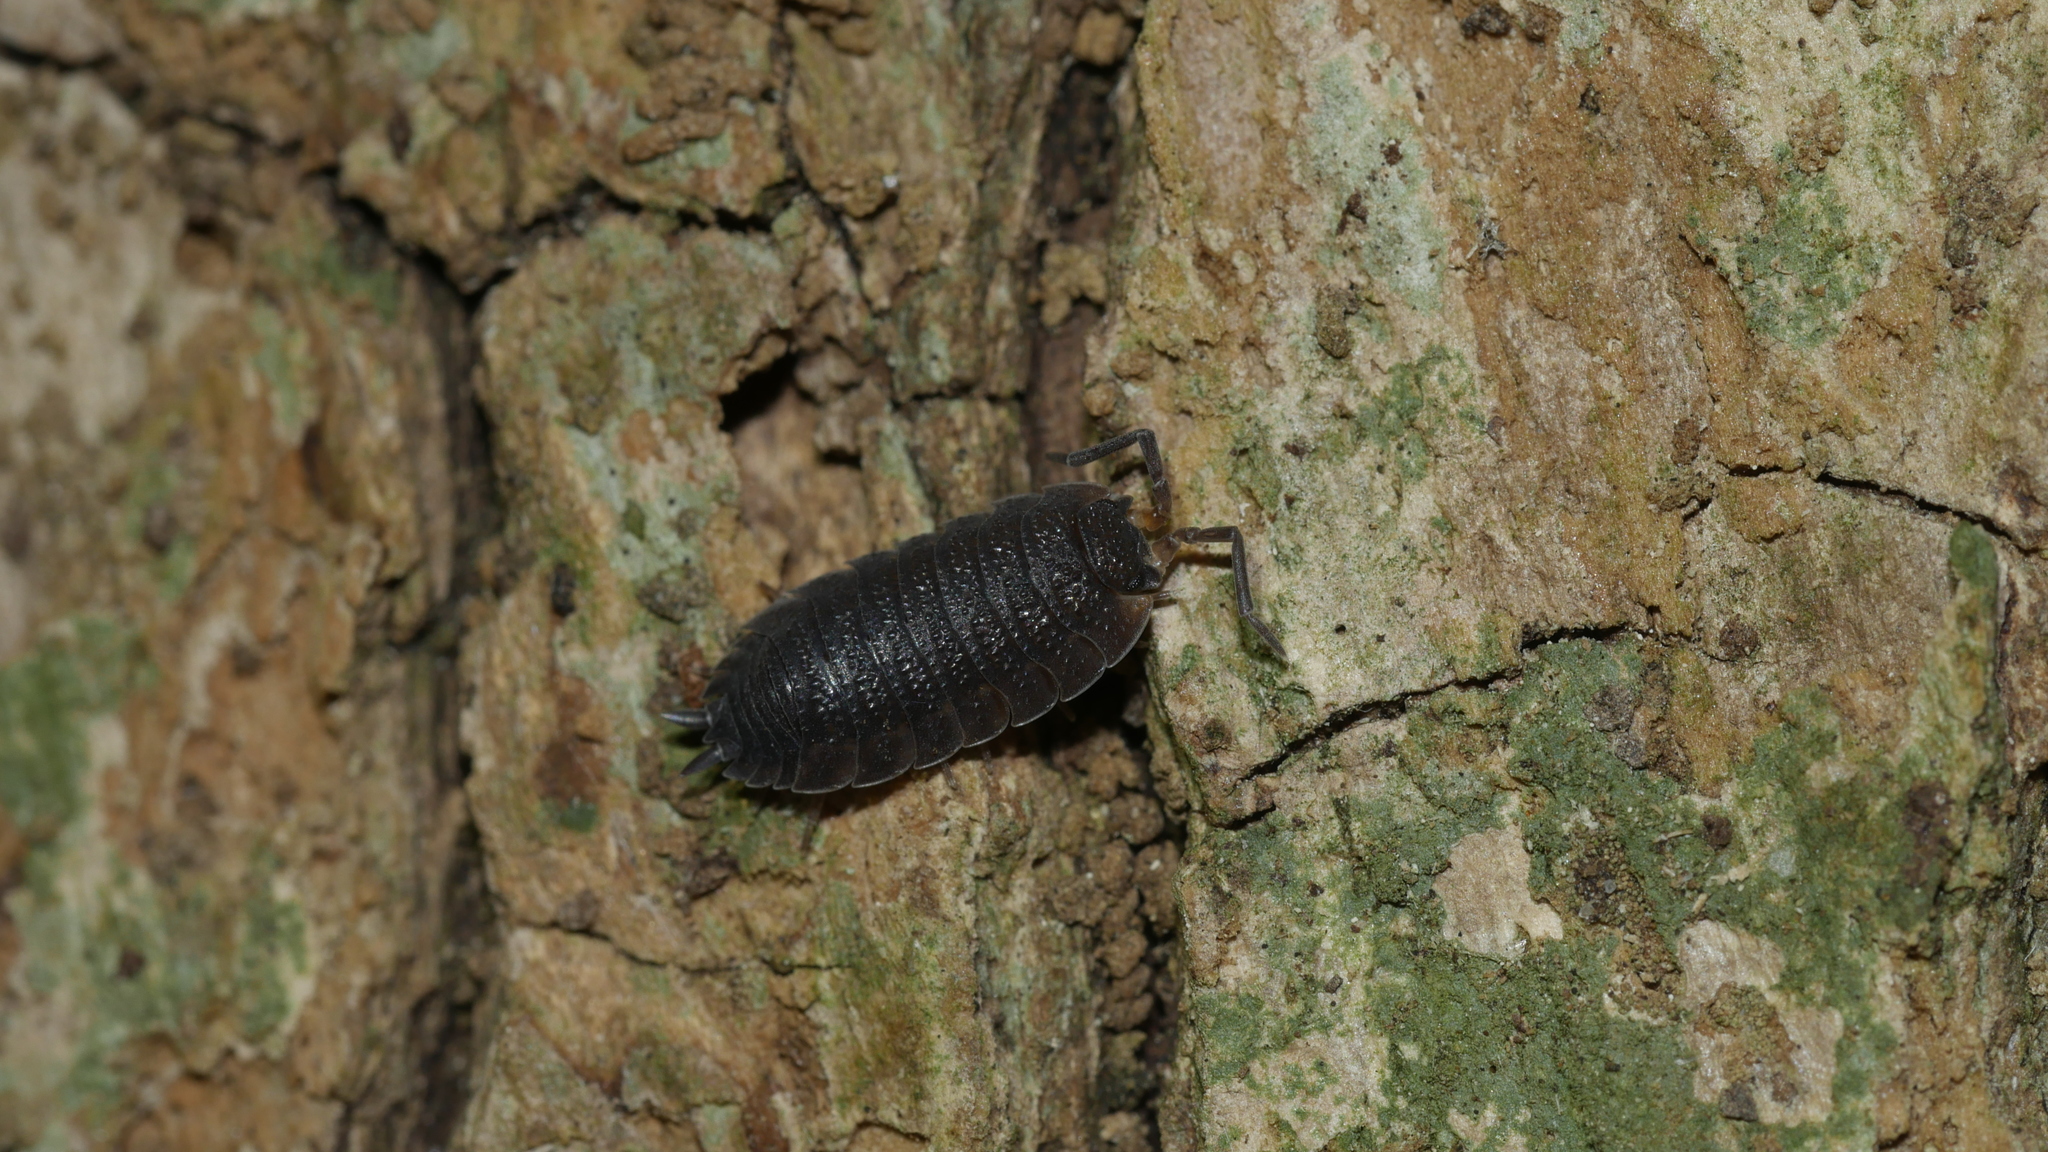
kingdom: Animalia
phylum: Arthropoda
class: Malacostraca
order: Isopoda
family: Porcellionidae
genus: Porcellio
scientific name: Porcellio scaber
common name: Common rough woodlouse
